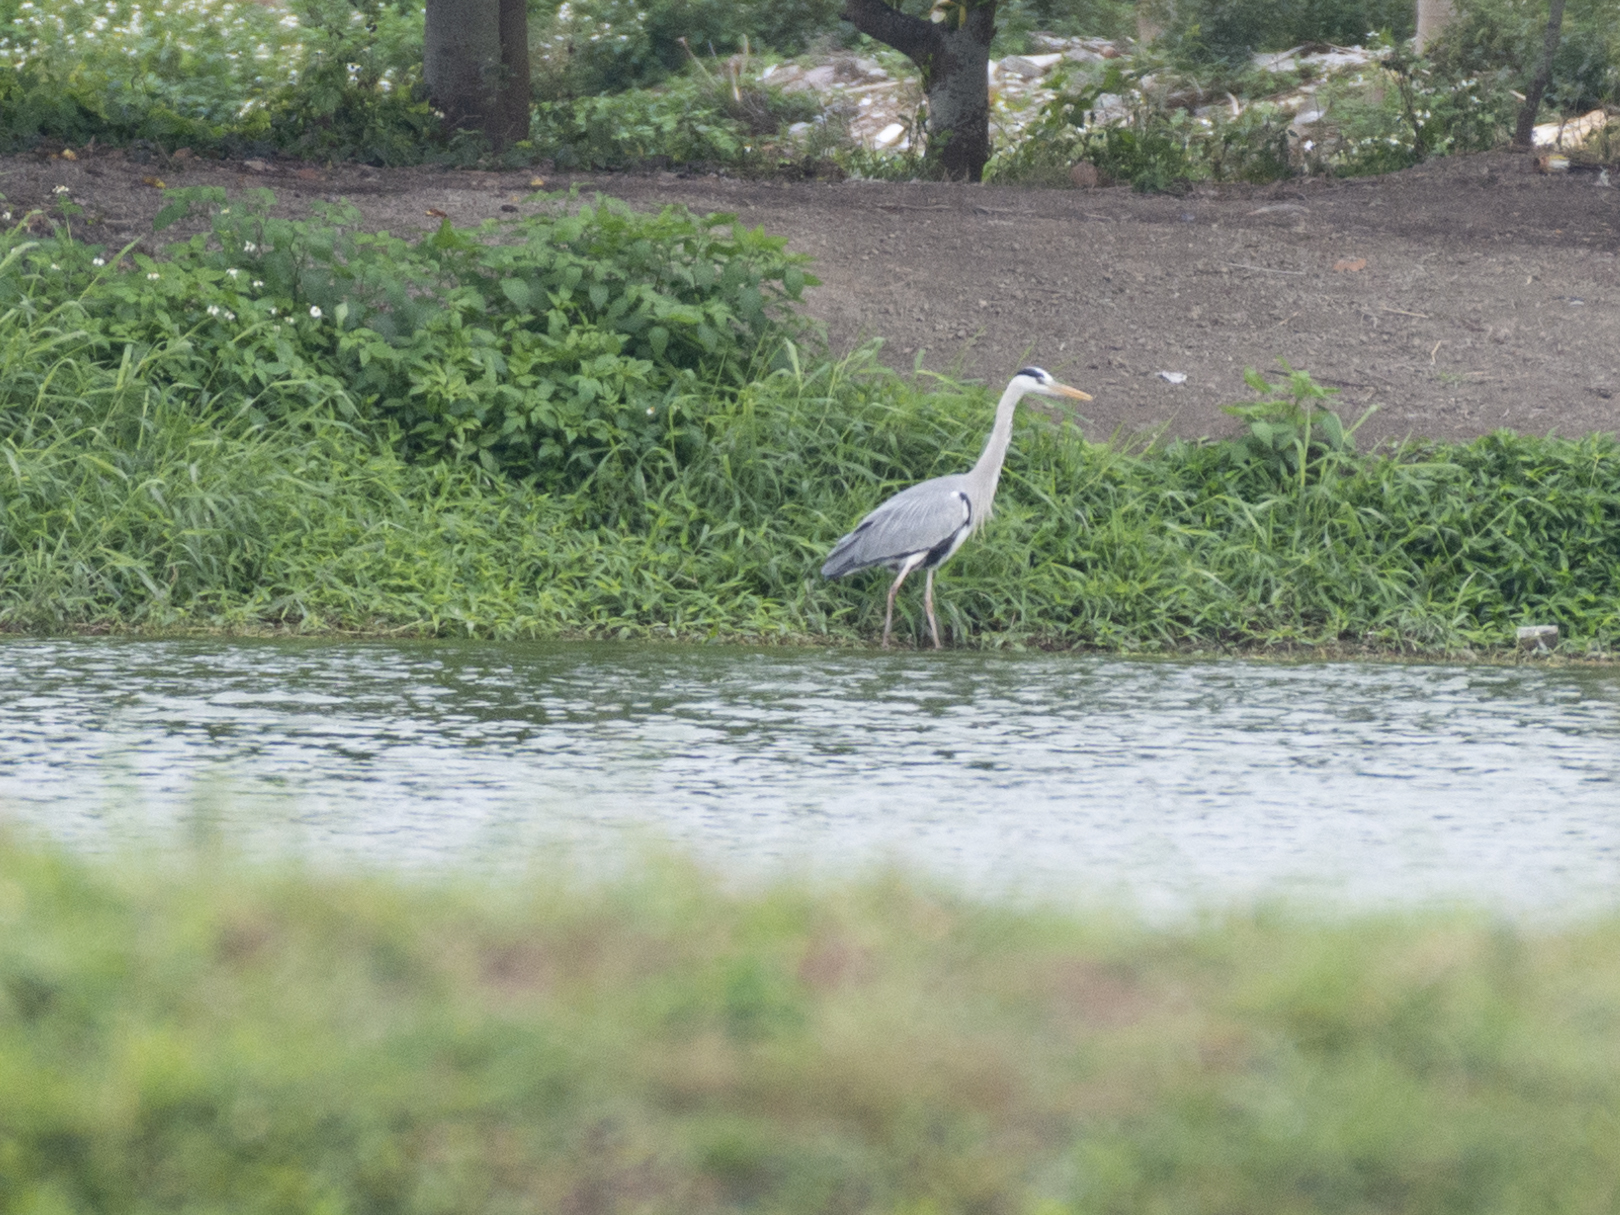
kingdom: Animalia
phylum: Chordata
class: Aves
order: Pelecaniformes
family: Ardeidae
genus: Ardea
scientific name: Ardea cinerea
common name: Grey heron
